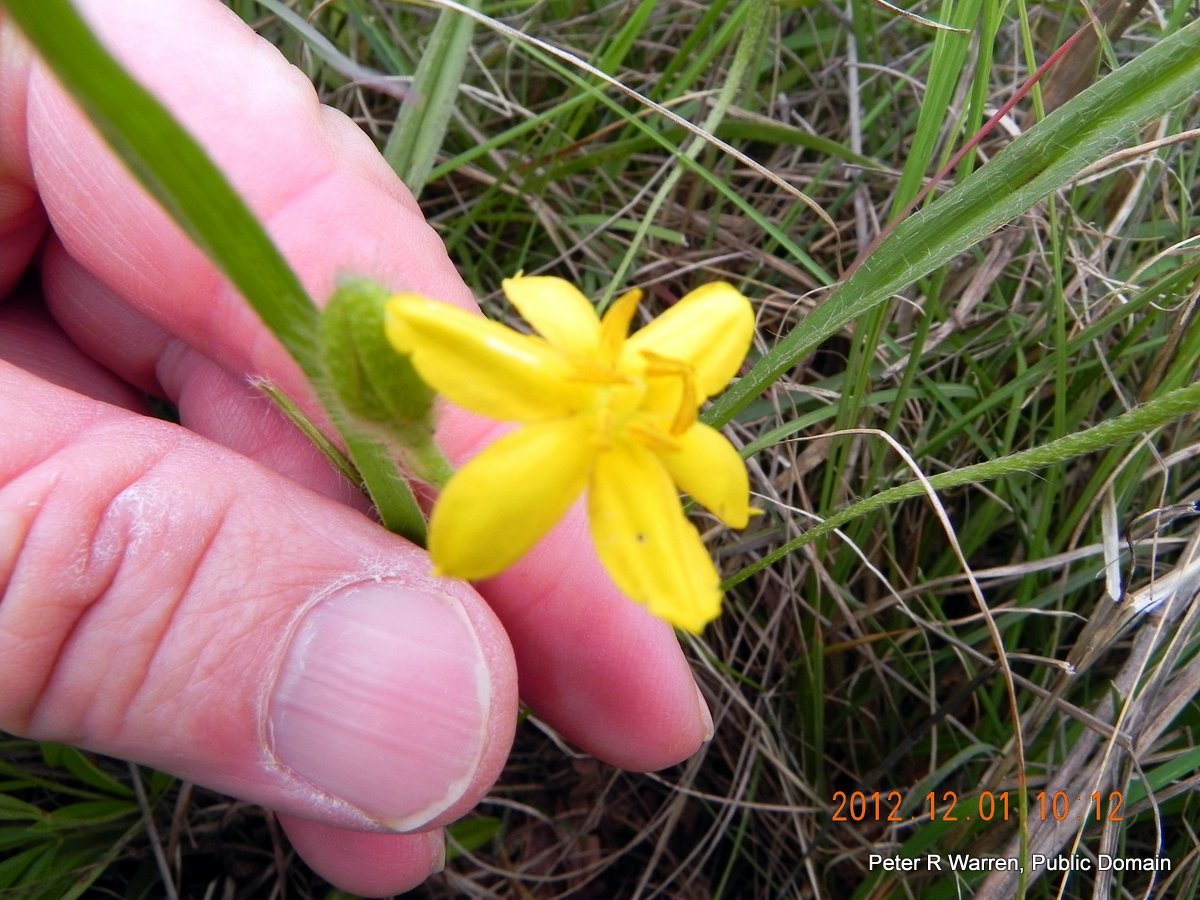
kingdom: Plantae
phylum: Tracheophyta
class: Liliopsida
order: Asparagales
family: Hypoxidaceae
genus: Hypoxis
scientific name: Hypoxis argentea
